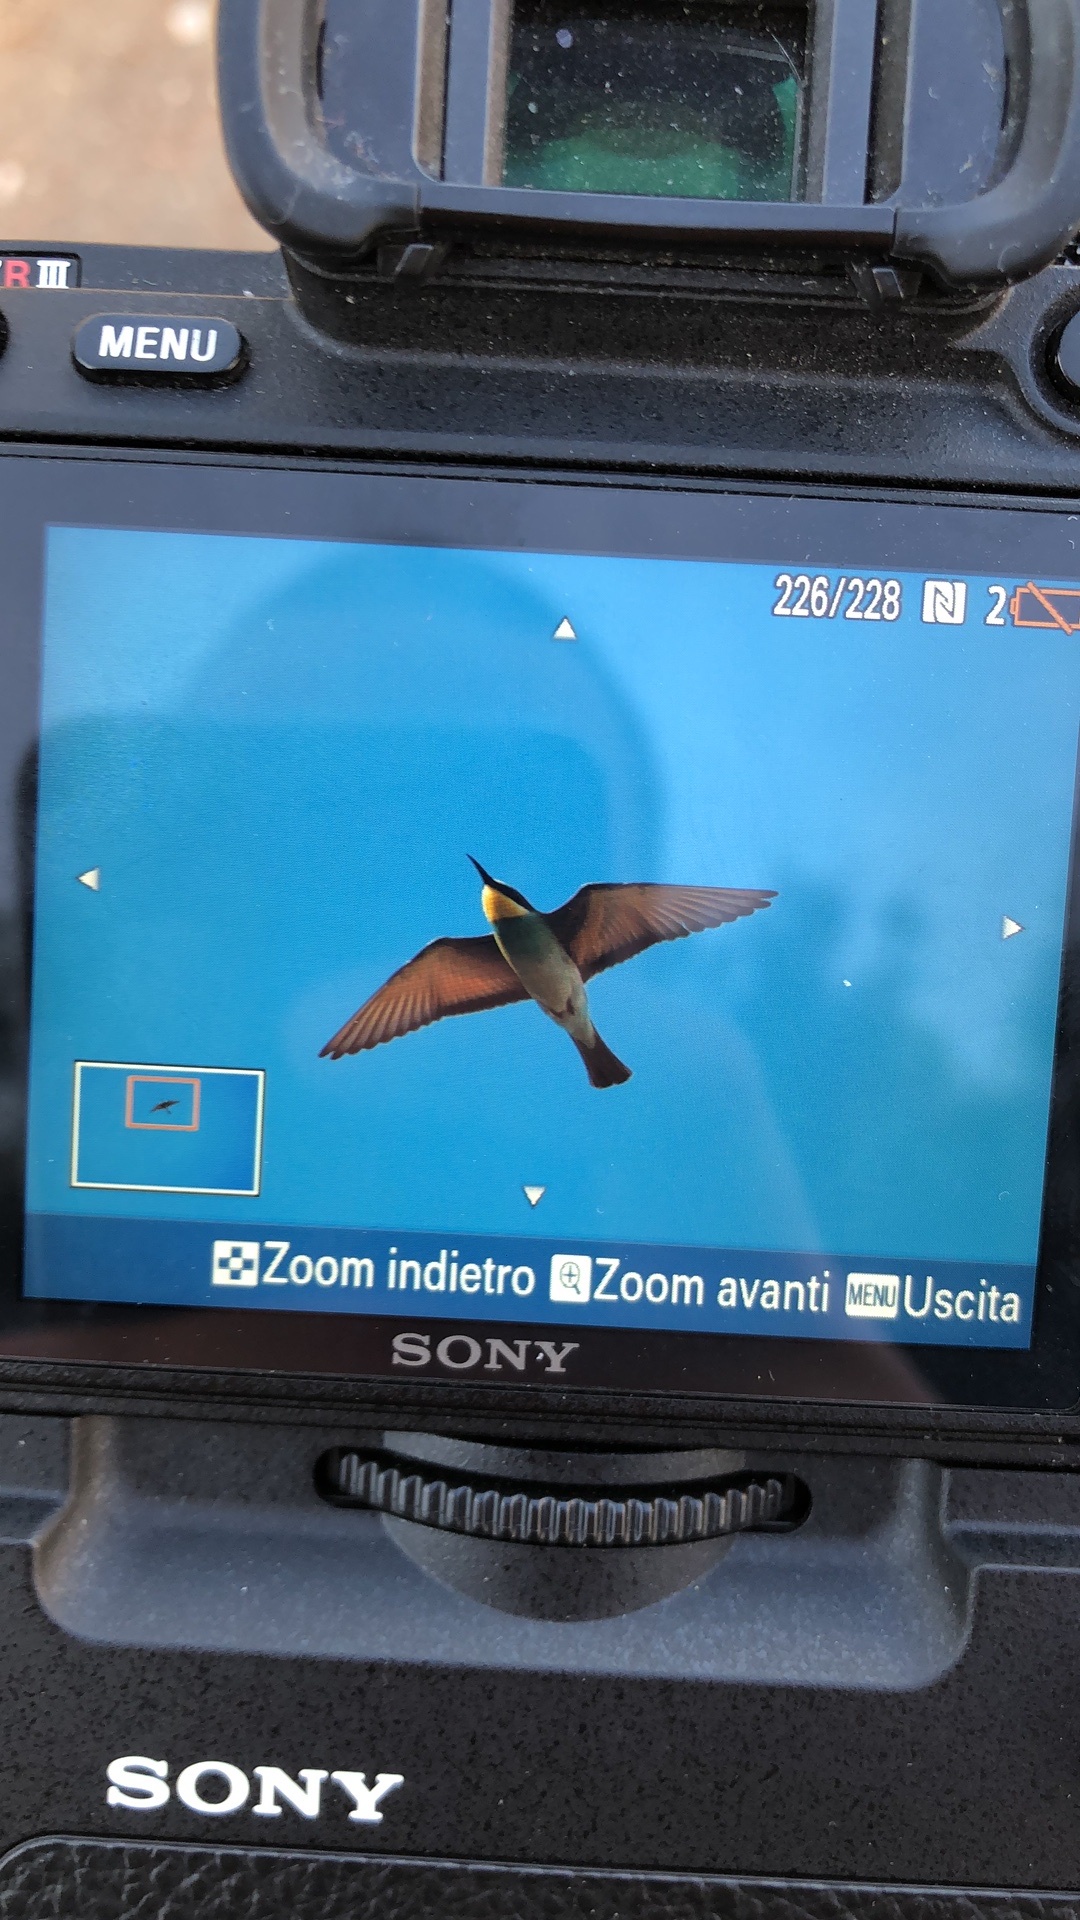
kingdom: Animalia
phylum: Chordata
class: Aves
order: Coraciiformes
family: Meropidae
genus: Merops
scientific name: Merops apiaster
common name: European bee-eater
